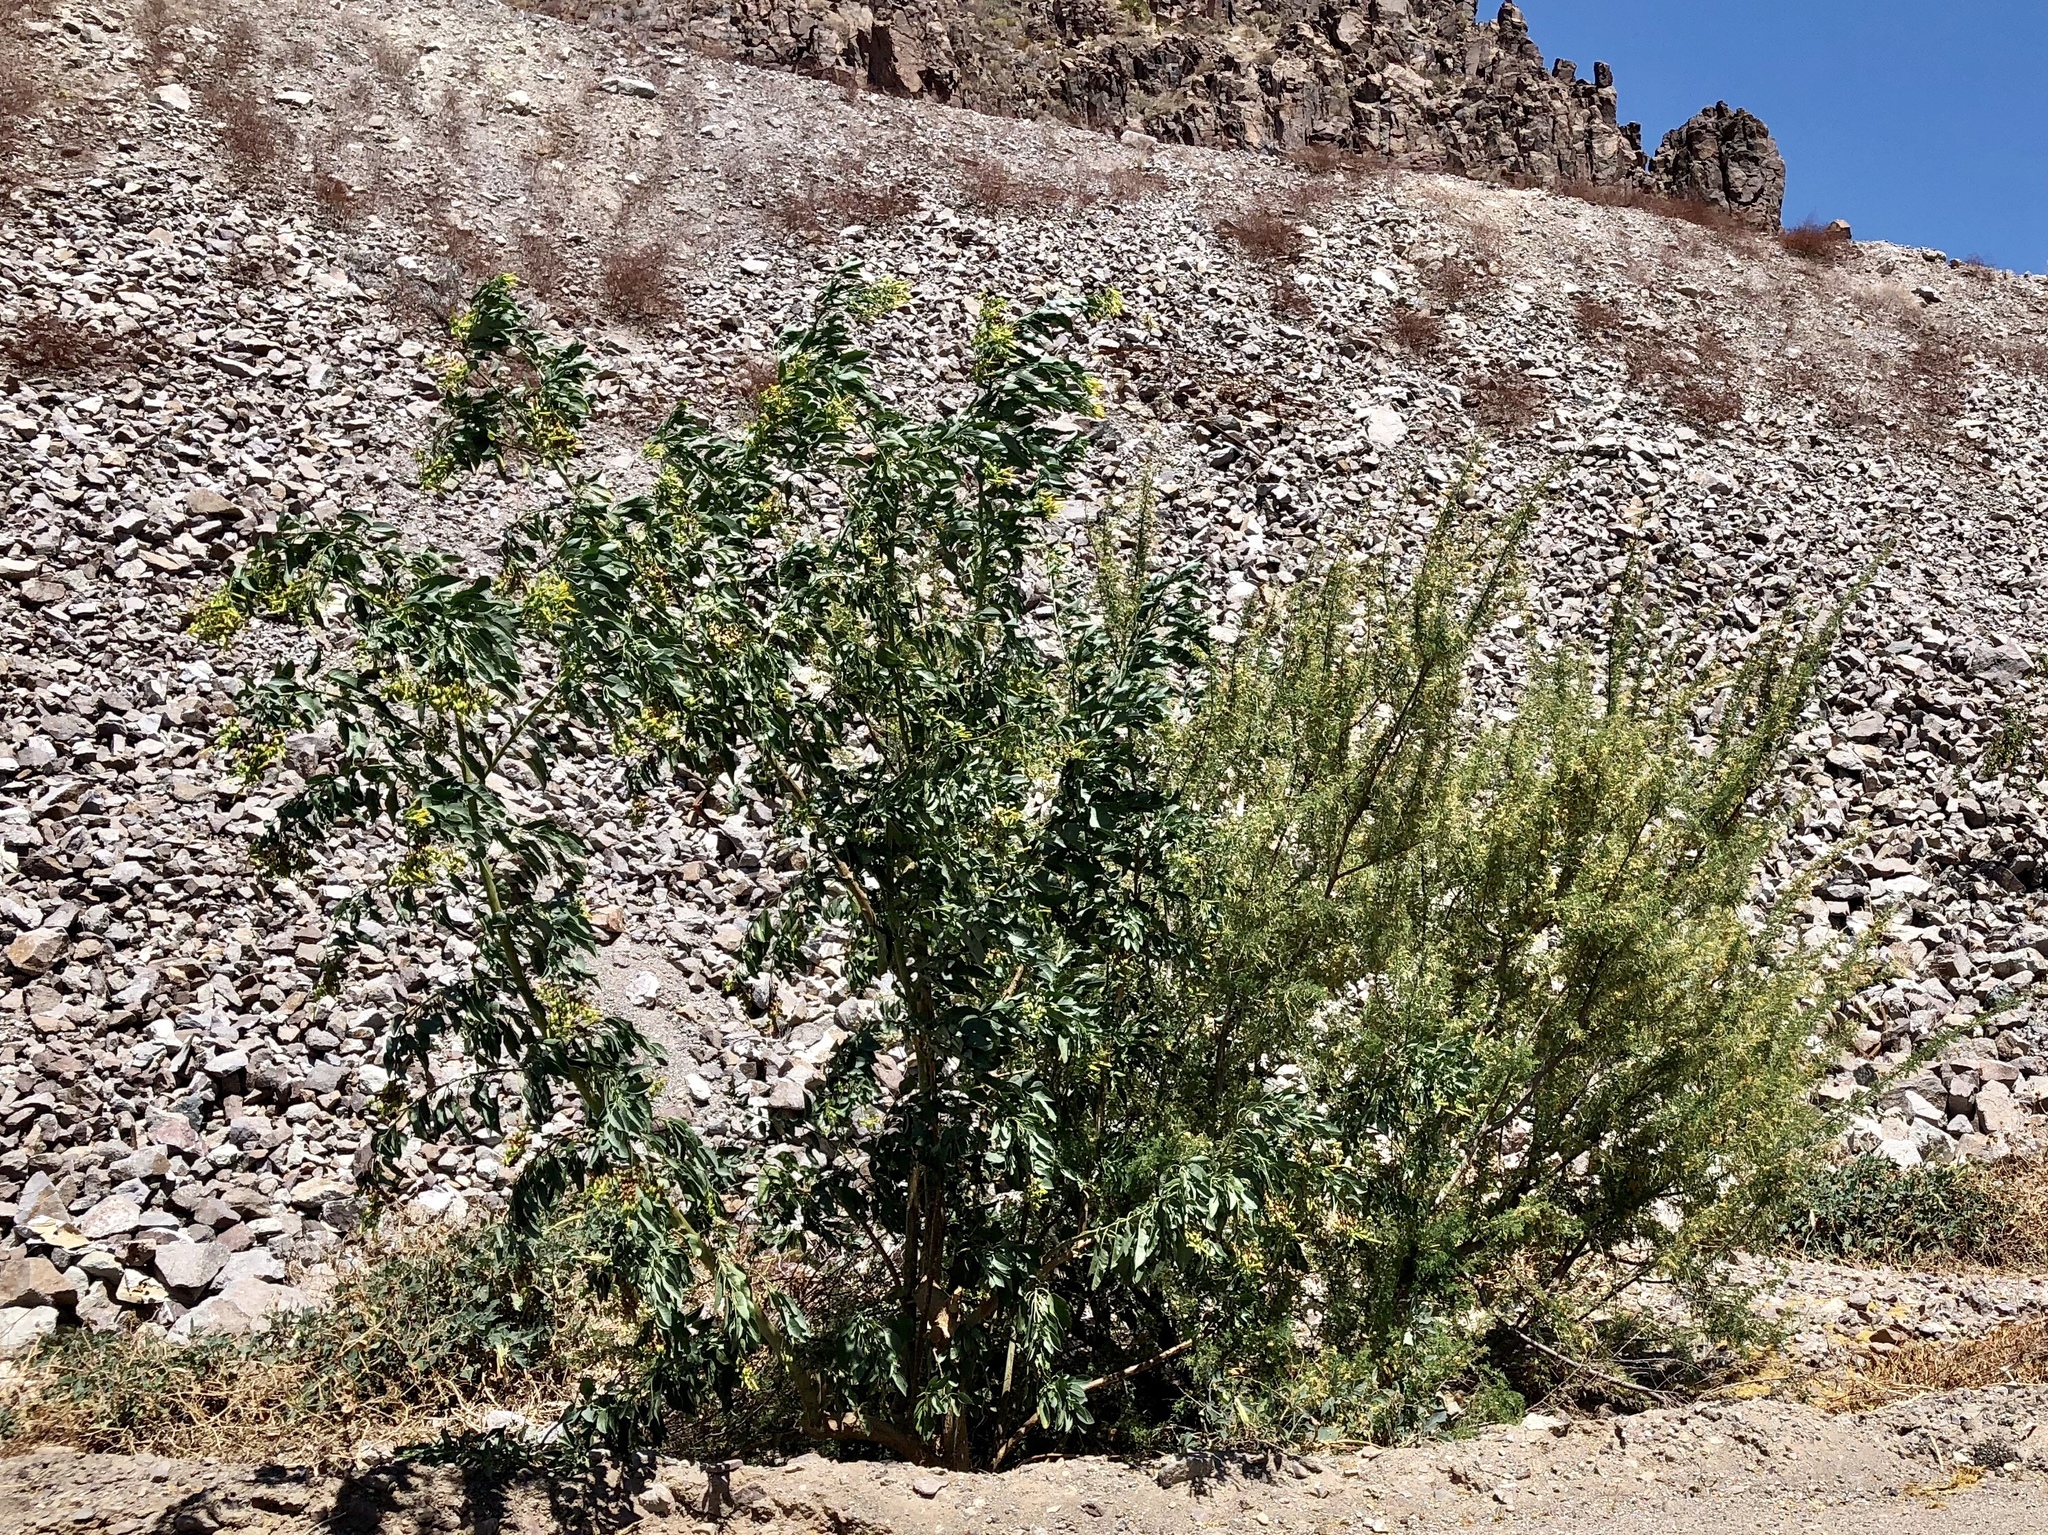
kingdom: Plantae
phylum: Tracheophyta
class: Magnoliopsida
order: Fabales
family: Fabaceae
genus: Senegalia
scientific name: Senegalia greggii
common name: Texas-mimosa
